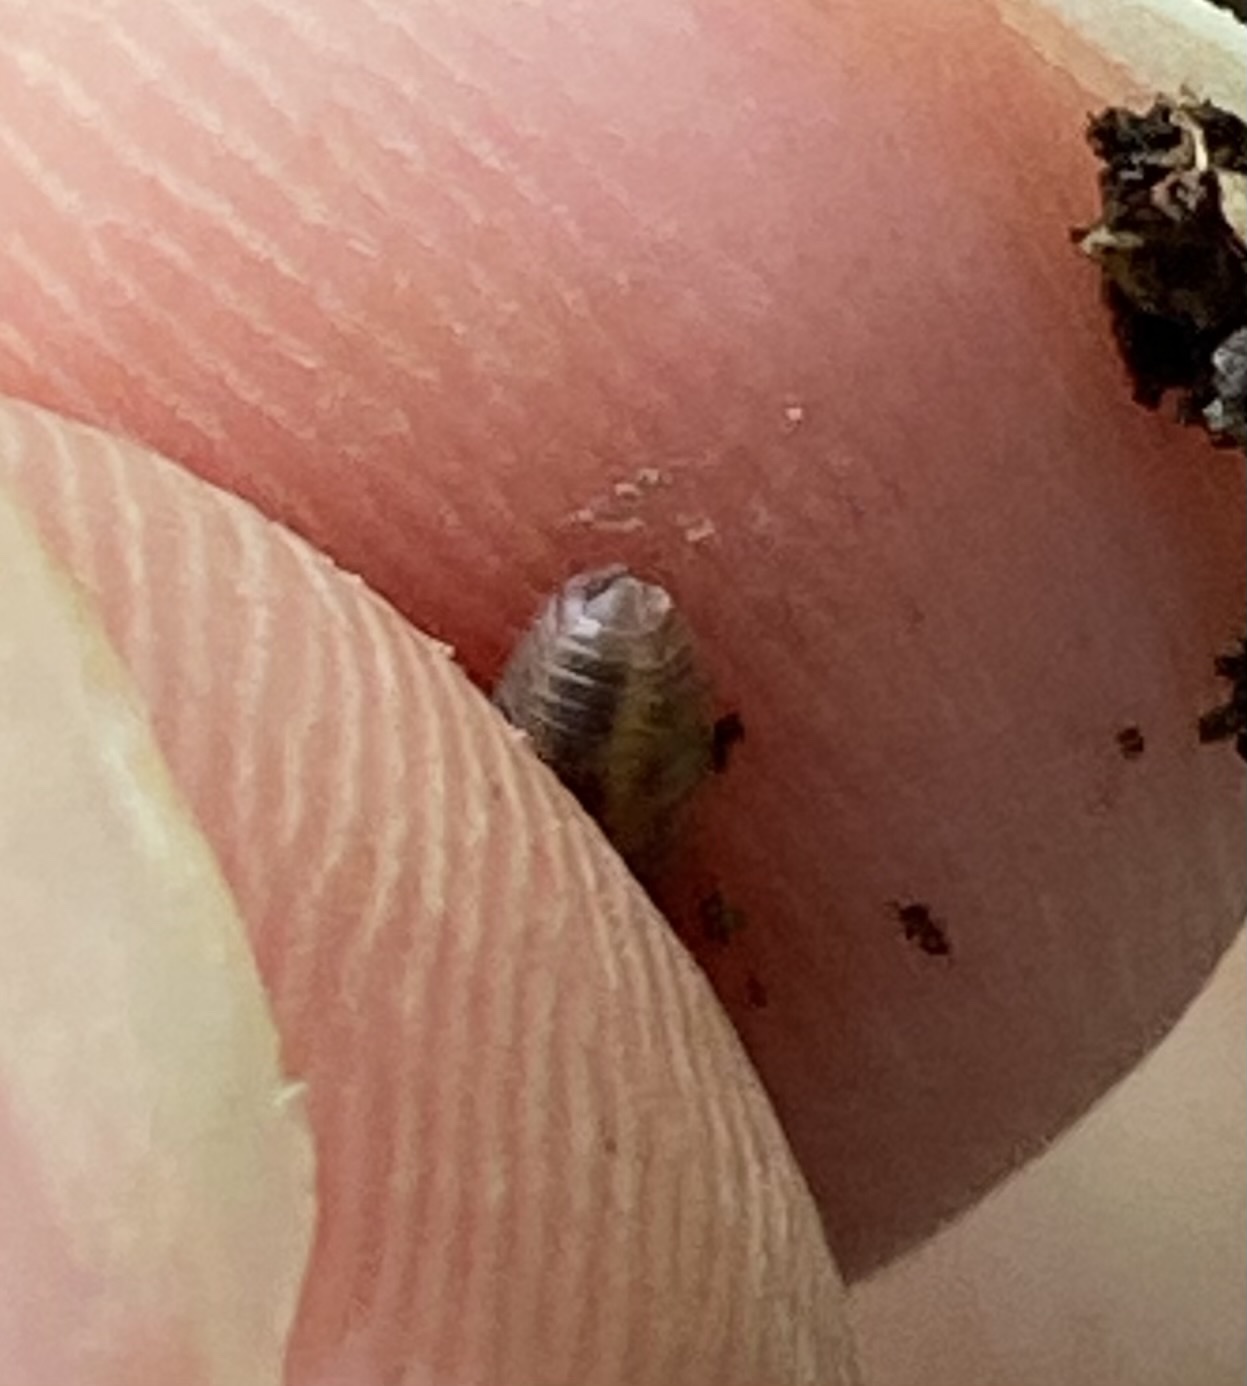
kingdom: Animalia
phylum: Arthropoda
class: Malacostraca
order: Isopoda
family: Armadillidiidae
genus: Armadillidium
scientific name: Armadillidium nasatum
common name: Isopod
